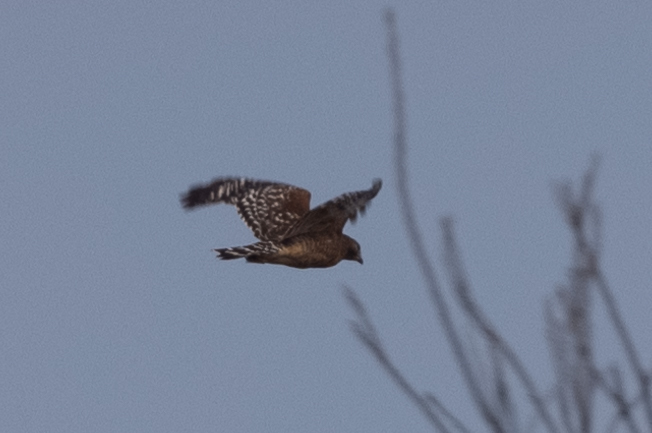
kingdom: Animalia
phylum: Chordata
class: Aves
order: Accipitriformes
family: Accipitridae
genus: Buteo
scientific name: Buteo lineatus
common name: Red-shouldered hawk
